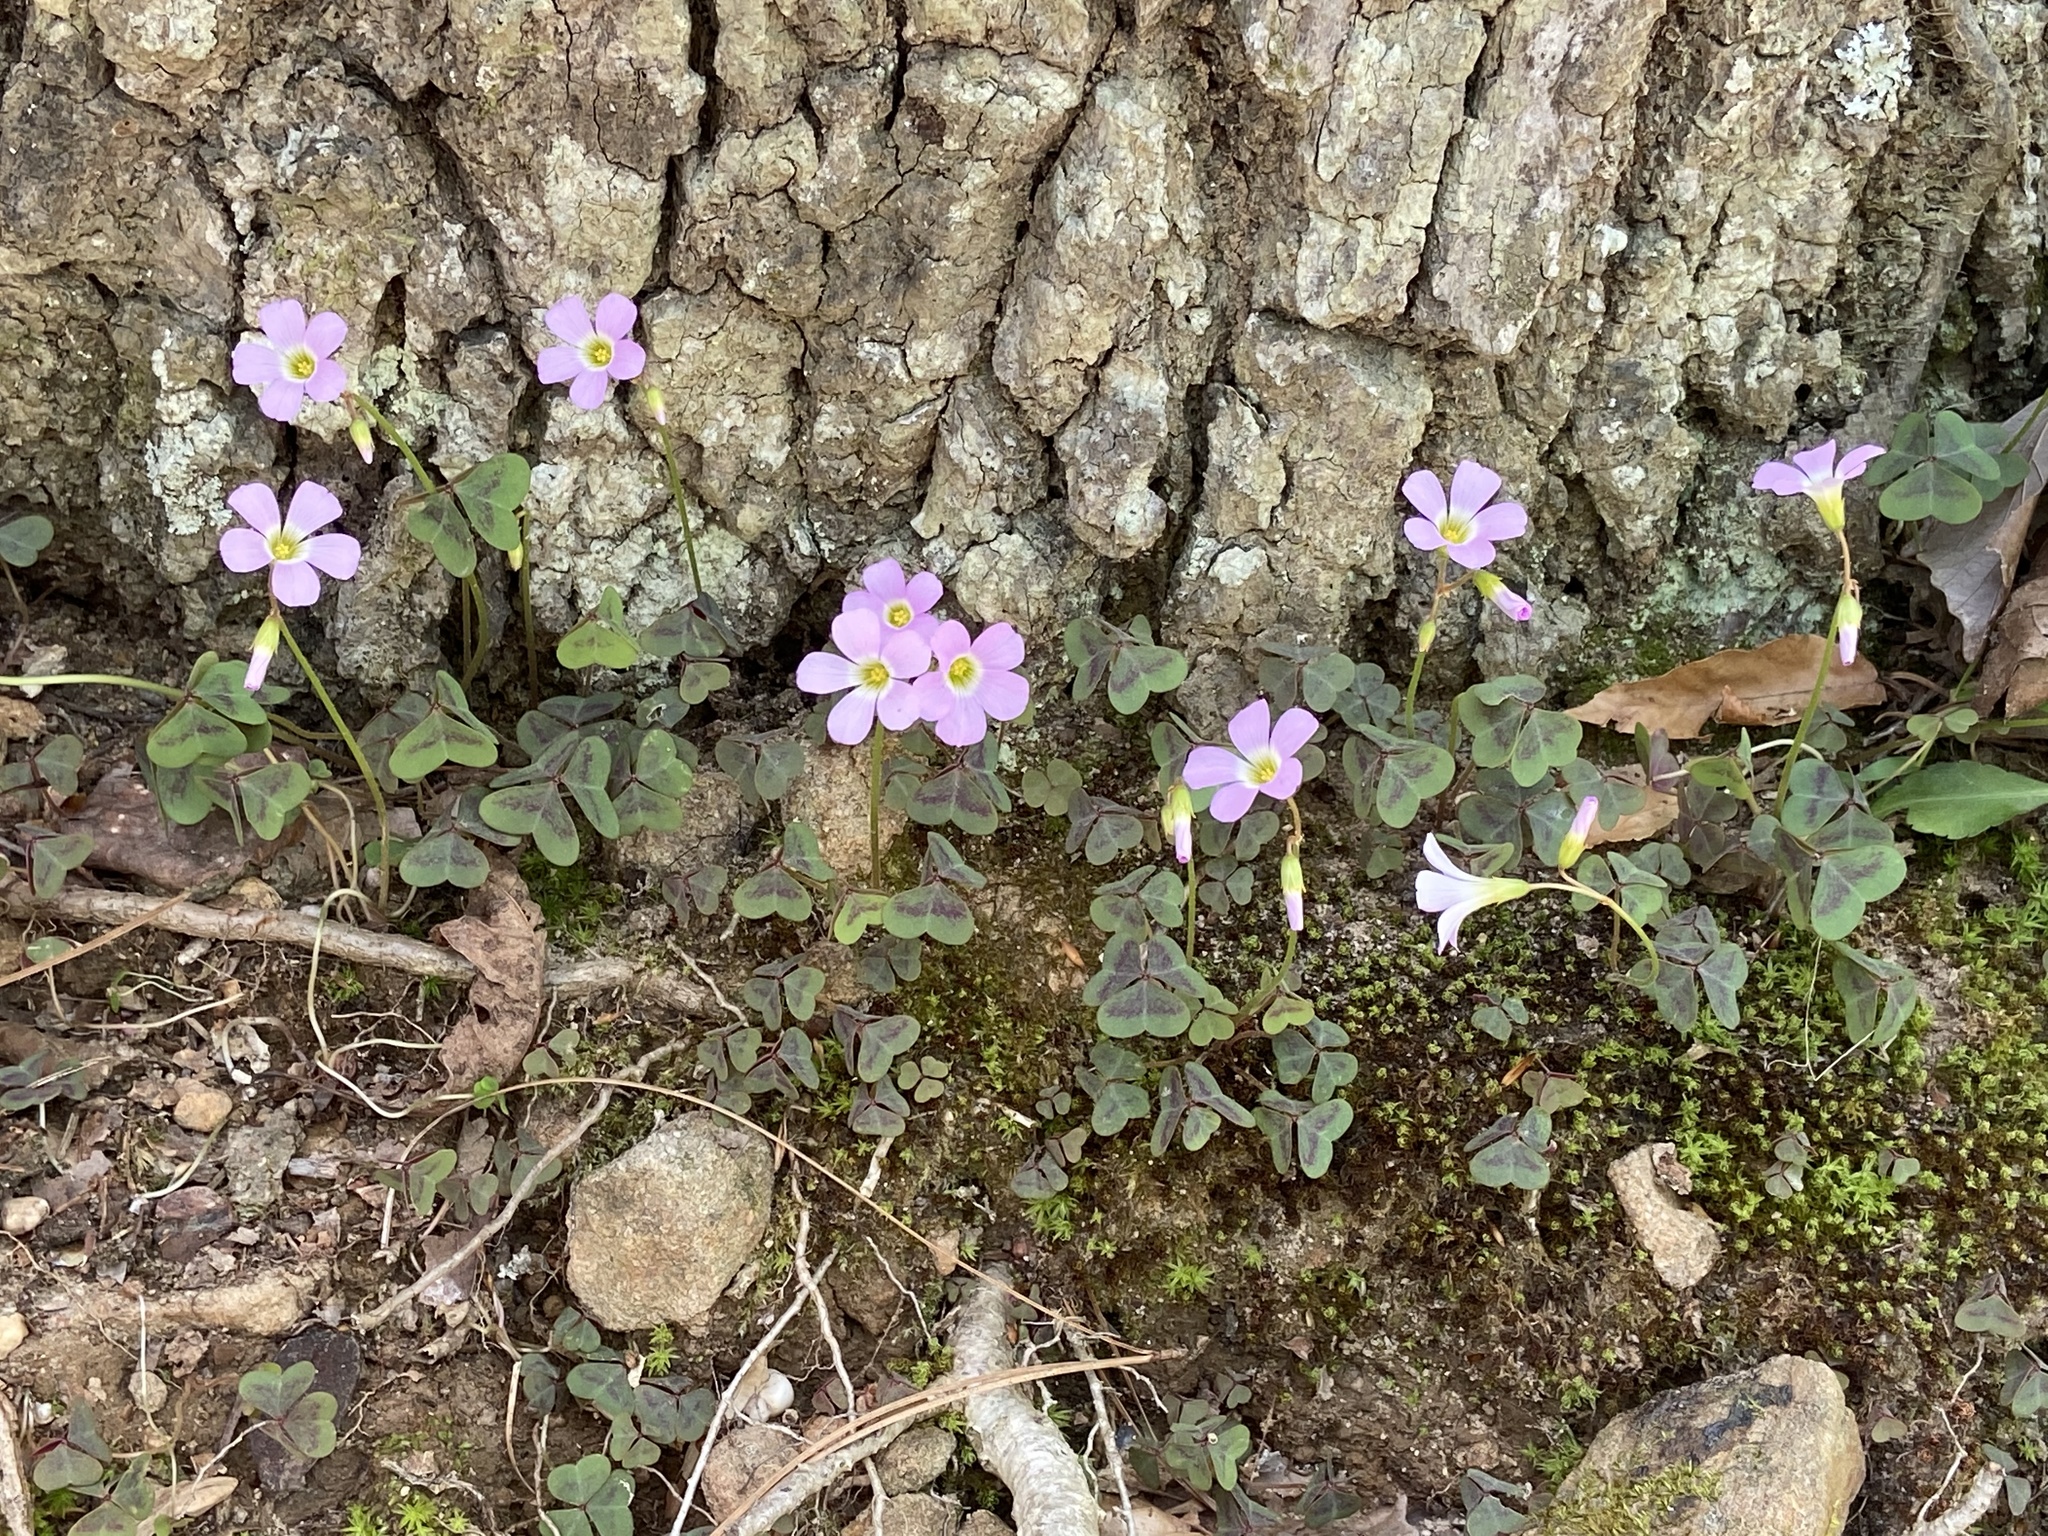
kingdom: Plantae
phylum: Tracheophyta
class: Magnoliopsida
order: Oxalidales
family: Oxalidaceae
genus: Oxalis
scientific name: Oxalis violacea
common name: Violet wood-sorrel
